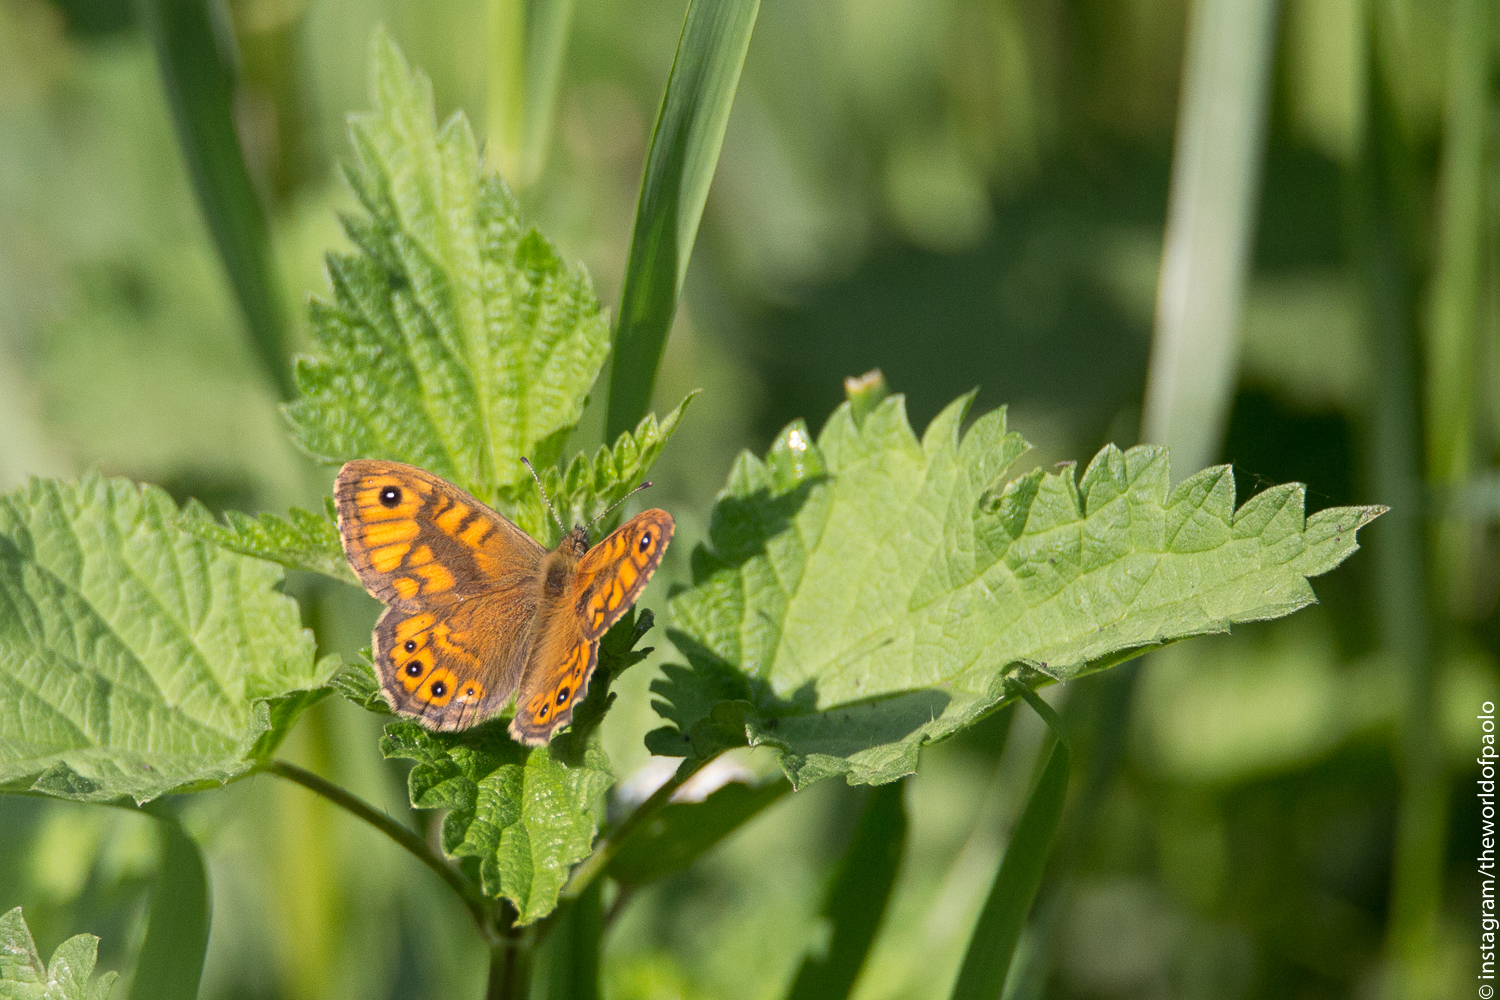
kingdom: Animalia
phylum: Arthropoda
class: Insecta
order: Lepidoptera
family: Nymphalidae
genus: Pararge
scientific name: Pararge Lasiommata megera
